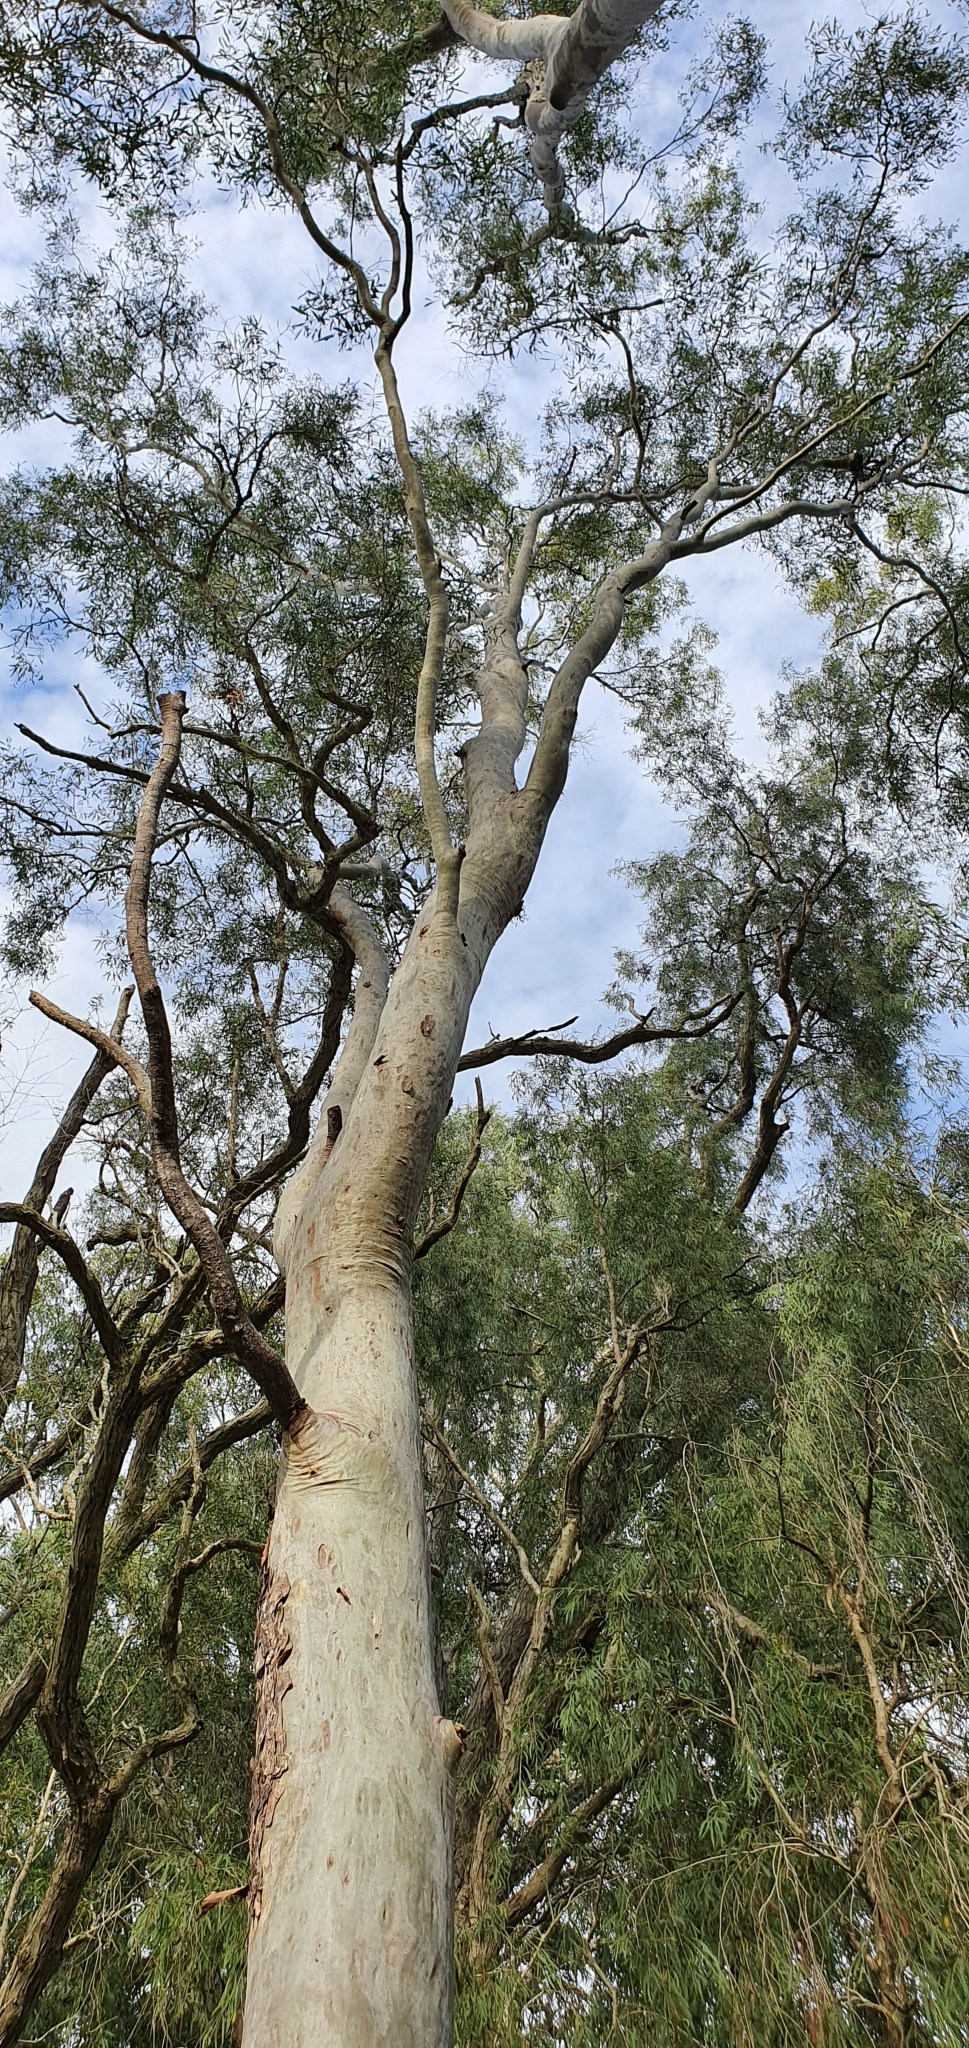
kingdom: Plantae
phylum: Tracheophyta
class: Magnoliopsida
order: Myrtales
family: Myrtaceae
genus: Corymbia
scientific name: Corymbia tessellaris
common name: Carbeen
